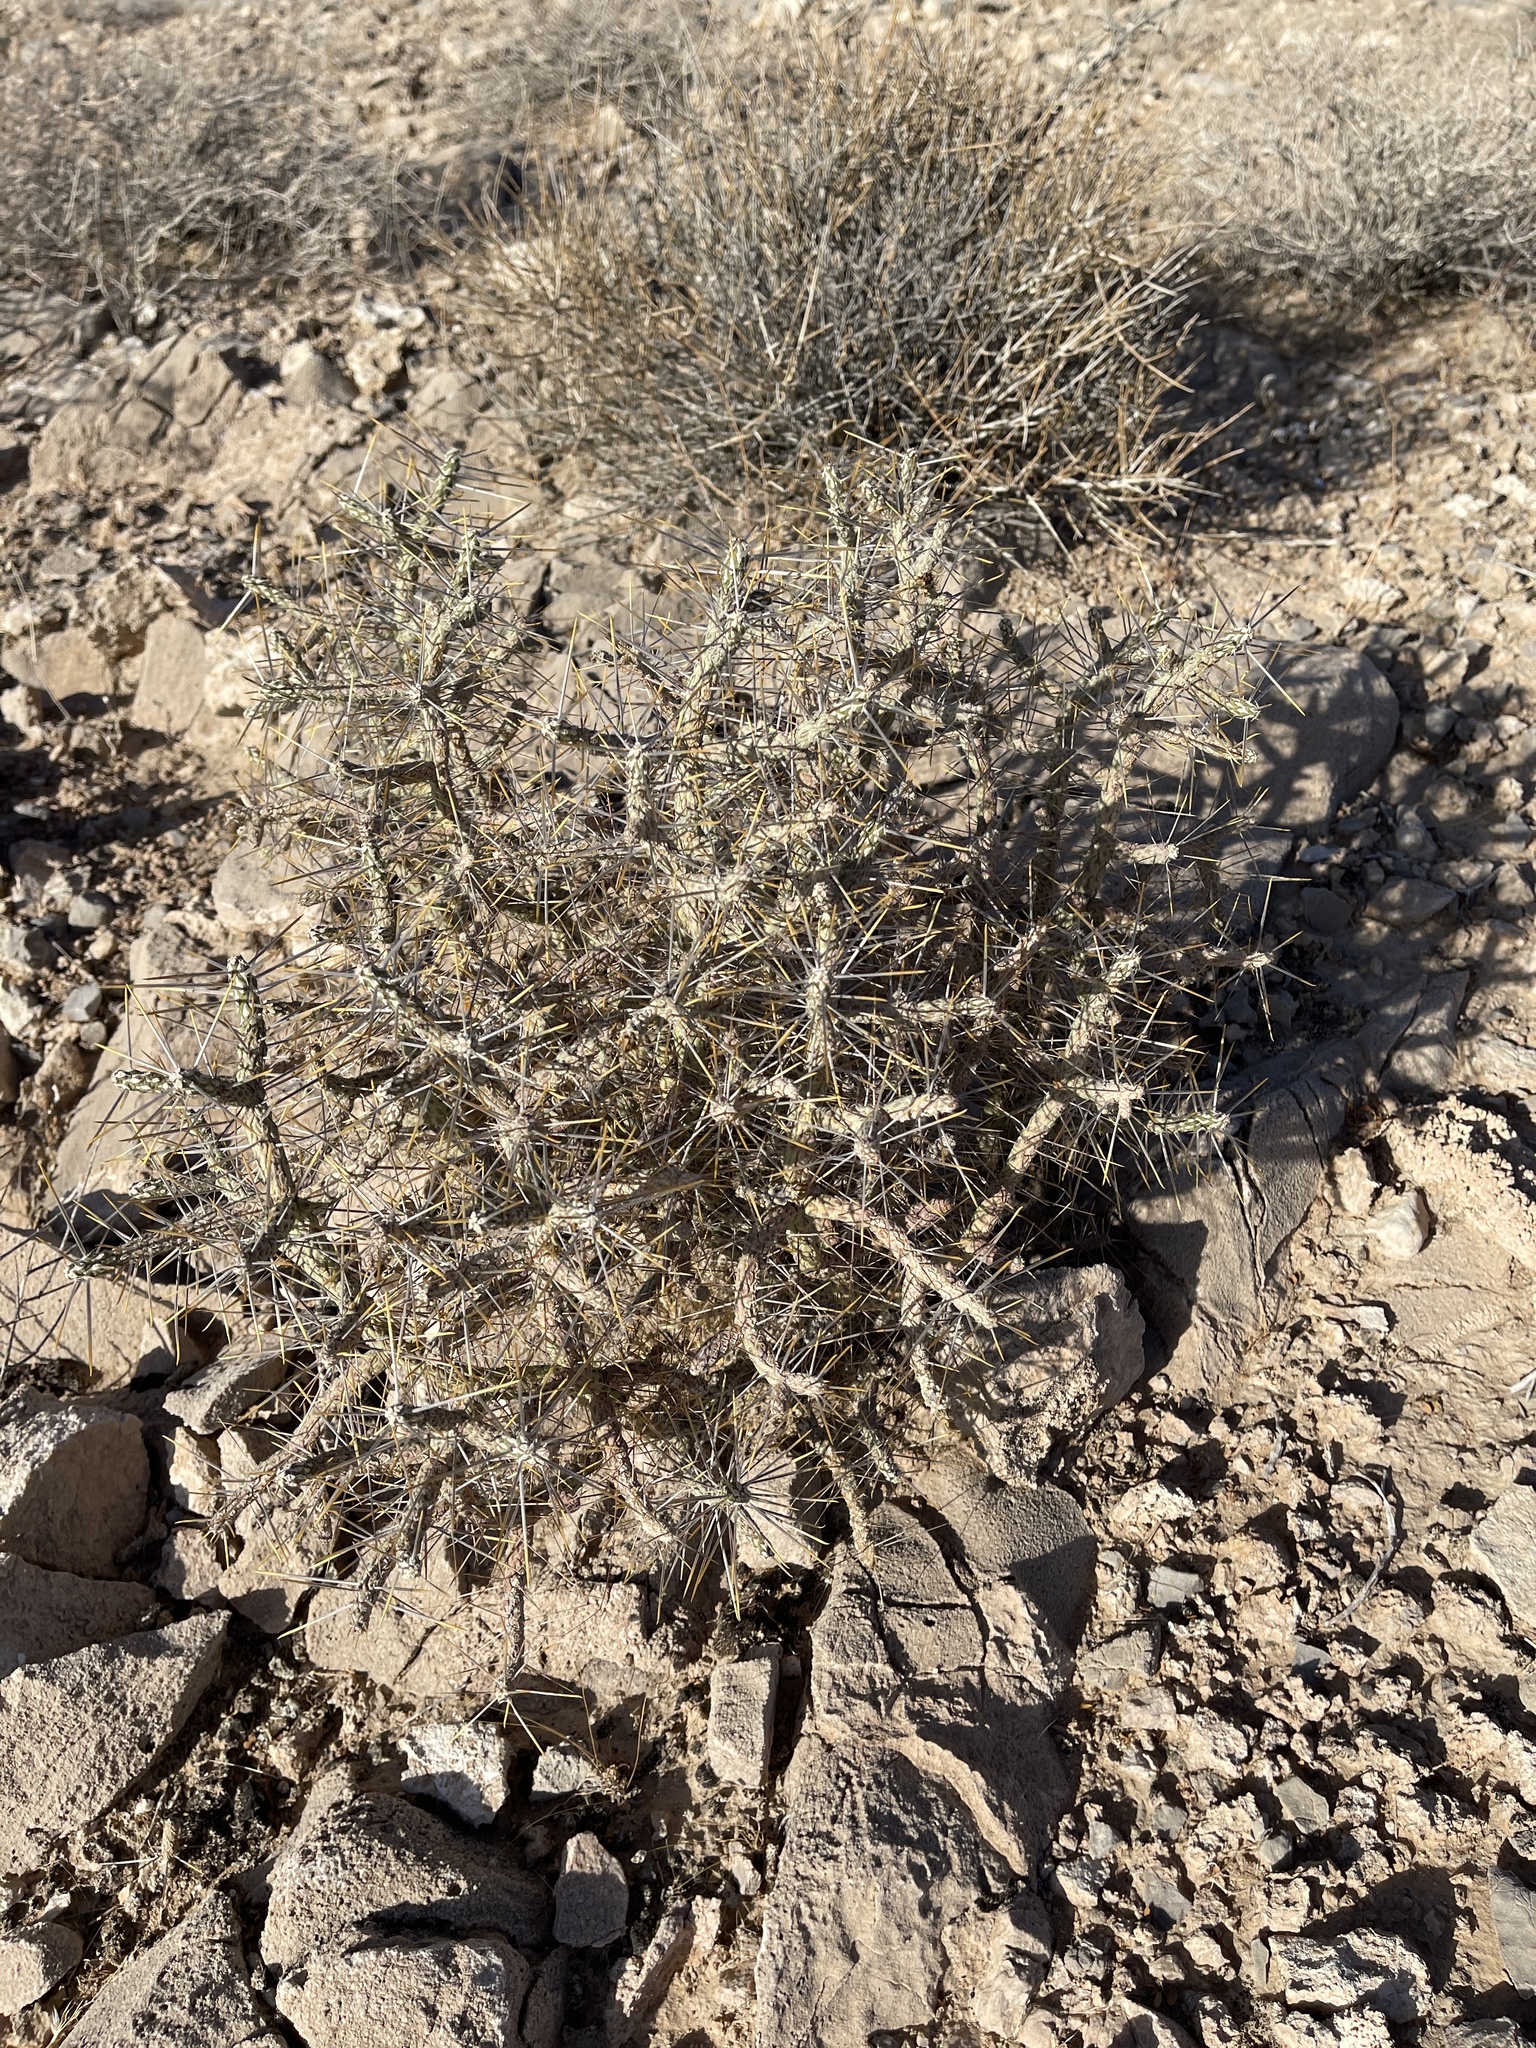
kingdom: Plantae
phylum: Tracheophyta
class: Magnoliopsida
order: Caryophyllales
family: Cactaceae
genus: Cylindropuntia
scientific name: Cylindropuntia ramosissima
